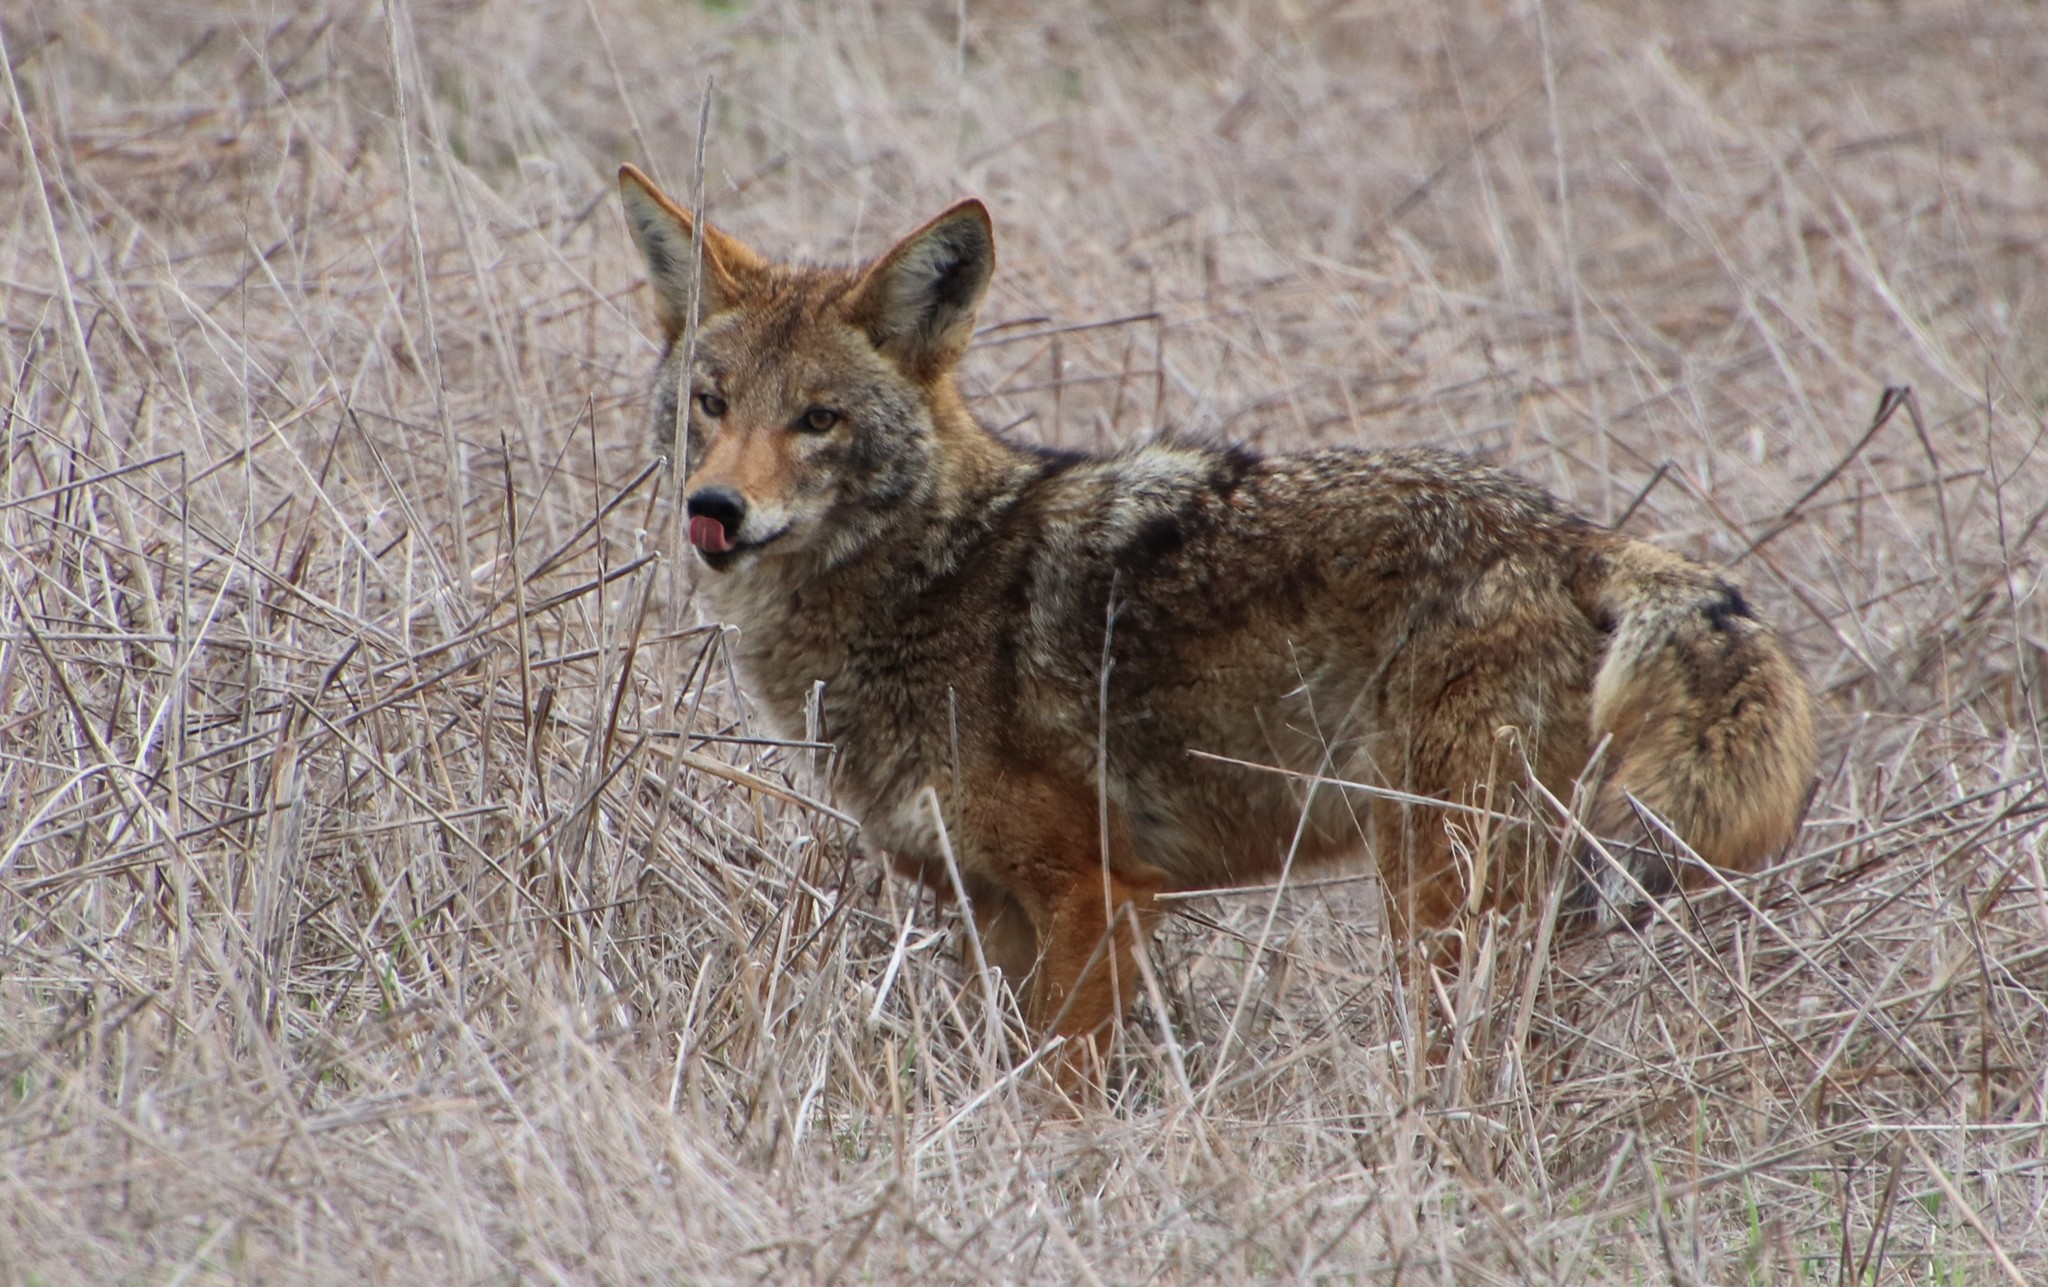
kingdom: Animalia
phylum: Chordata
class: Mammalia
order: Carnivora
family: Canidae
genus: Canis
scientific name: Canis latrans
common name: Coyote
